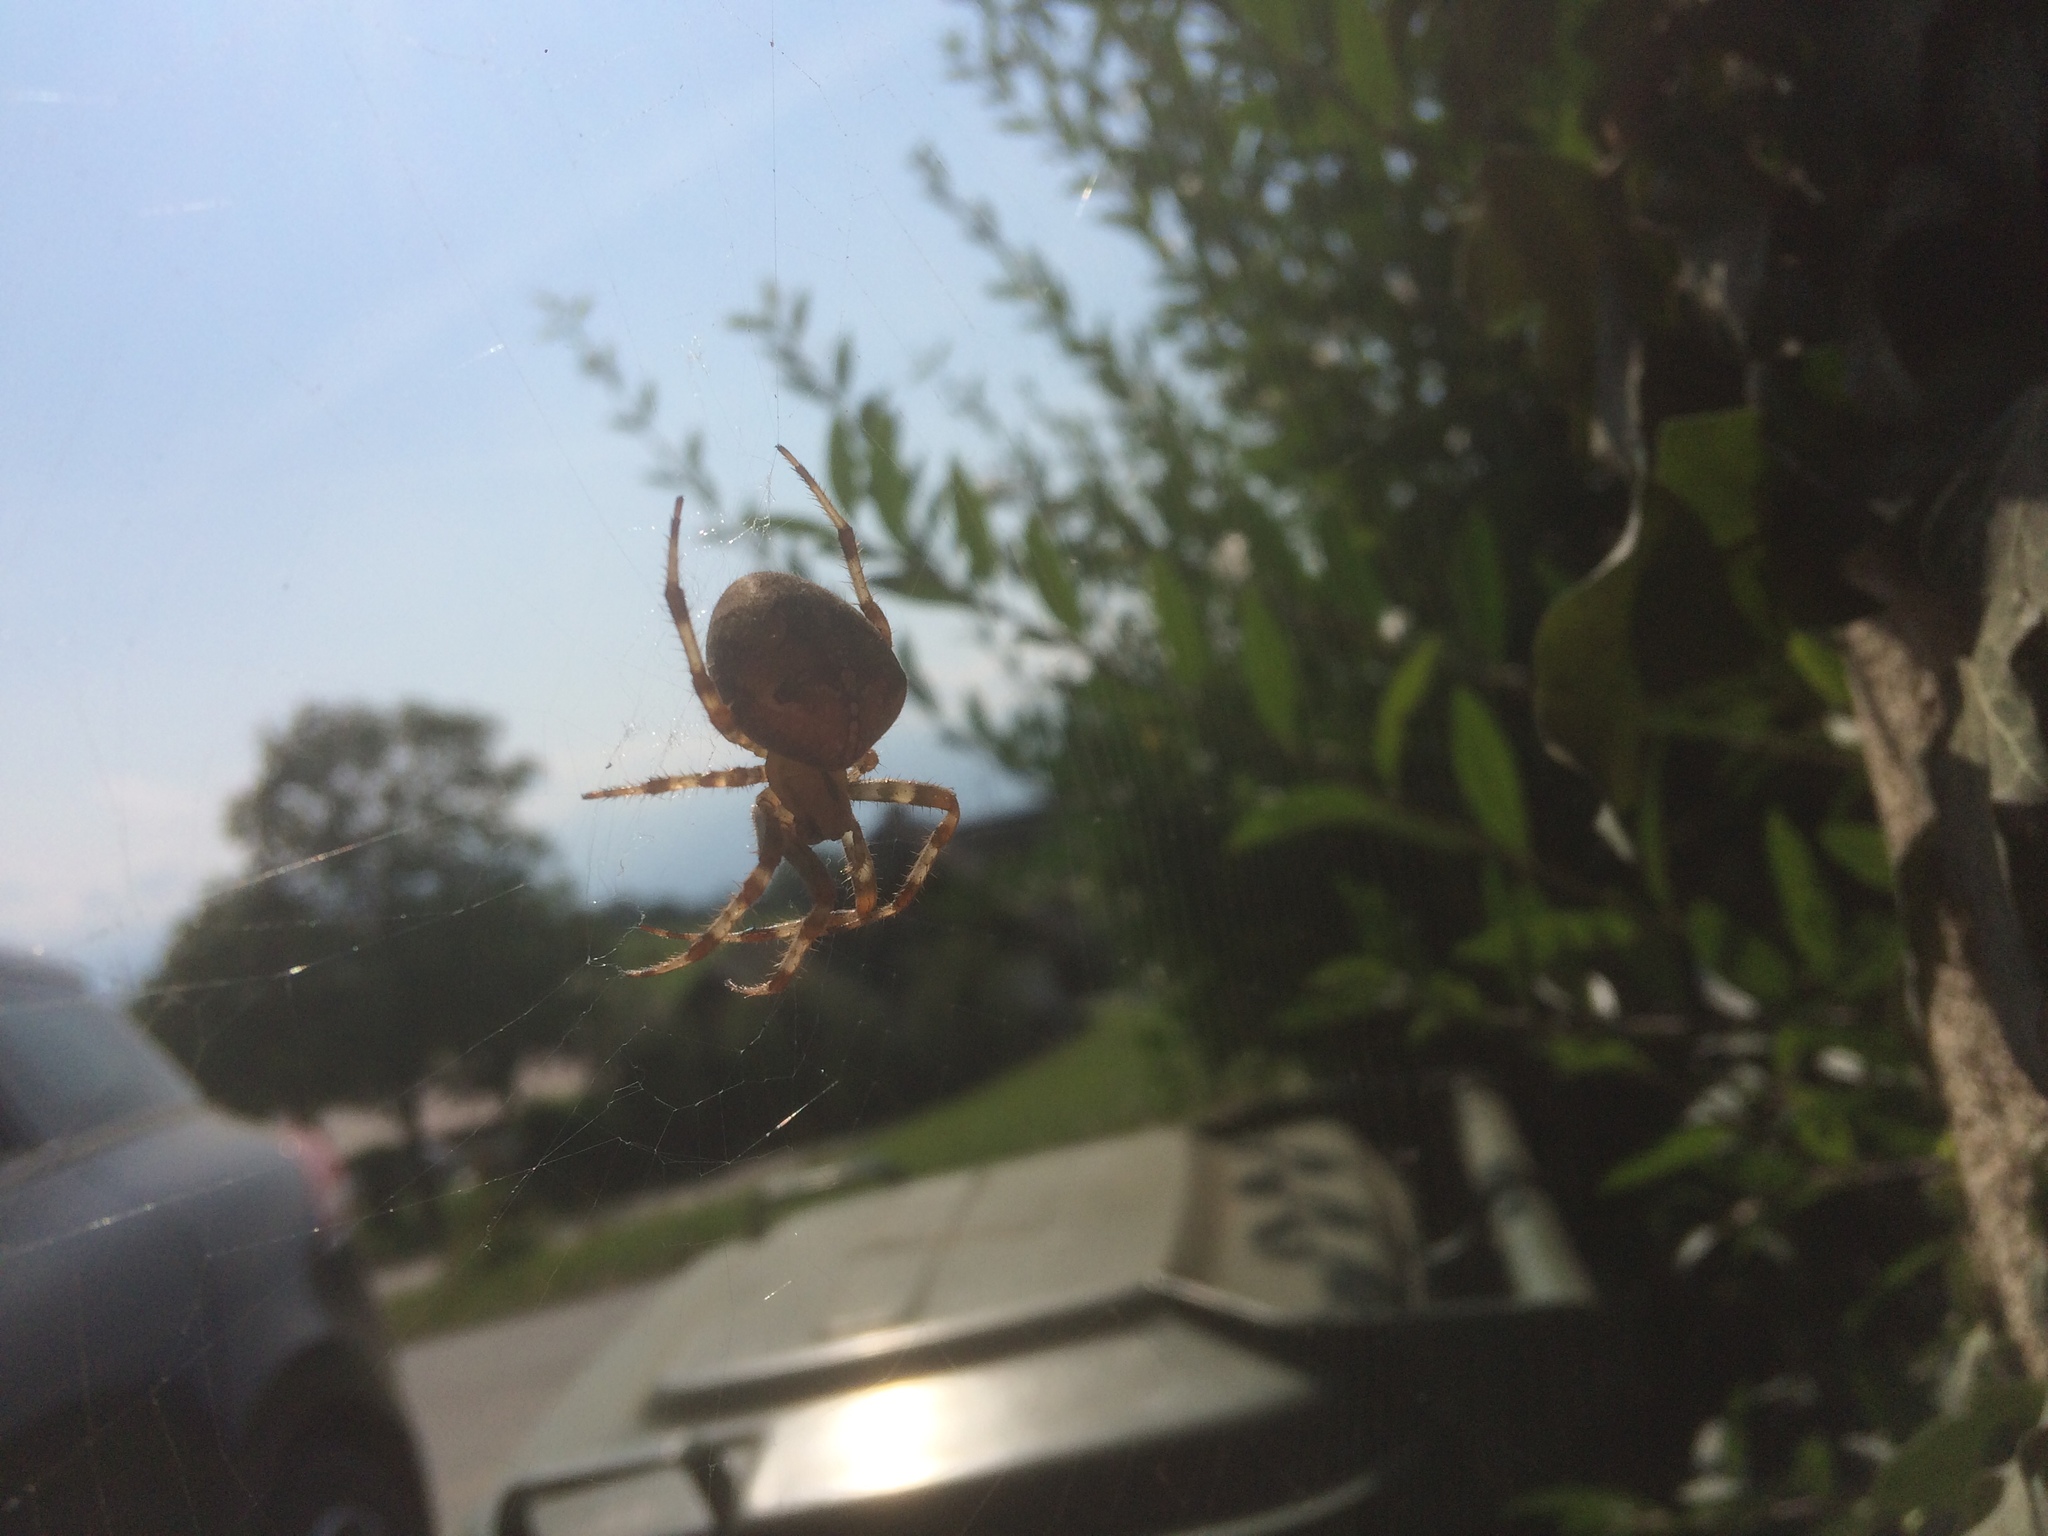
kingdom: Animalia
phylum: Arthropoda
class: Arachnida
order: Araneae
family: Araneidae
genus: Araneus
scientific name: Araneus diadematus
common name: Cross orbweaver
